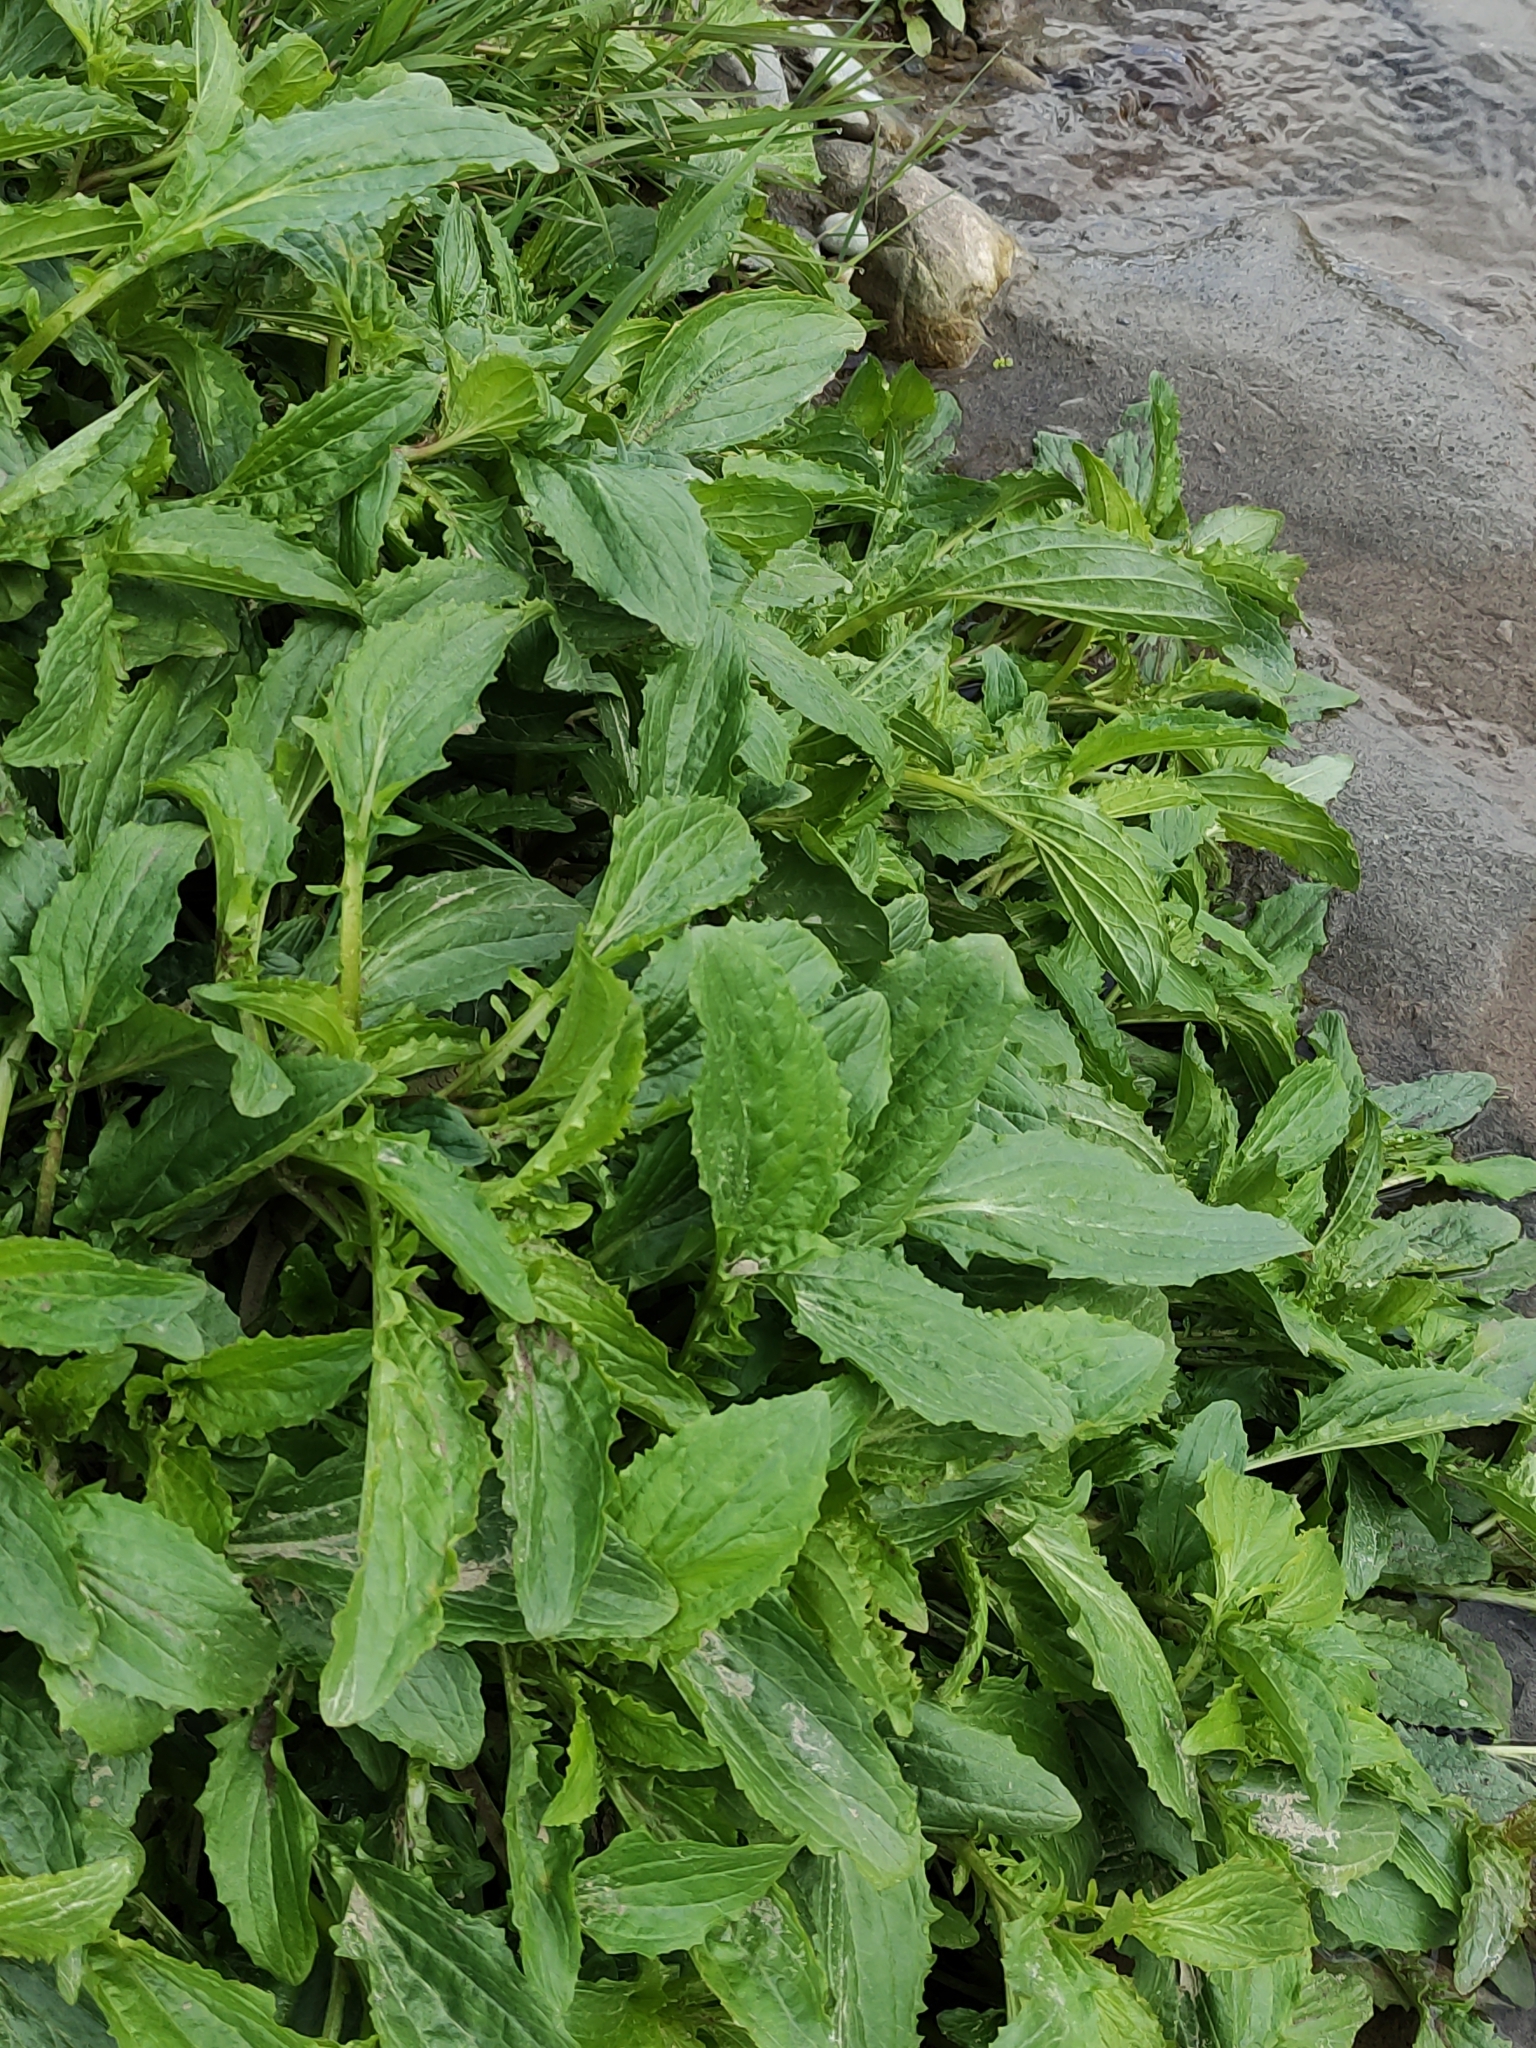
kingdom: Plantae
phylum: Tracheophyta
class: Magnoliopsida
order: Lamiales
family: Phrymaceae
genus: Erythranthe
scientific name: Erythranthe guttata
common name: Monkeyflower
